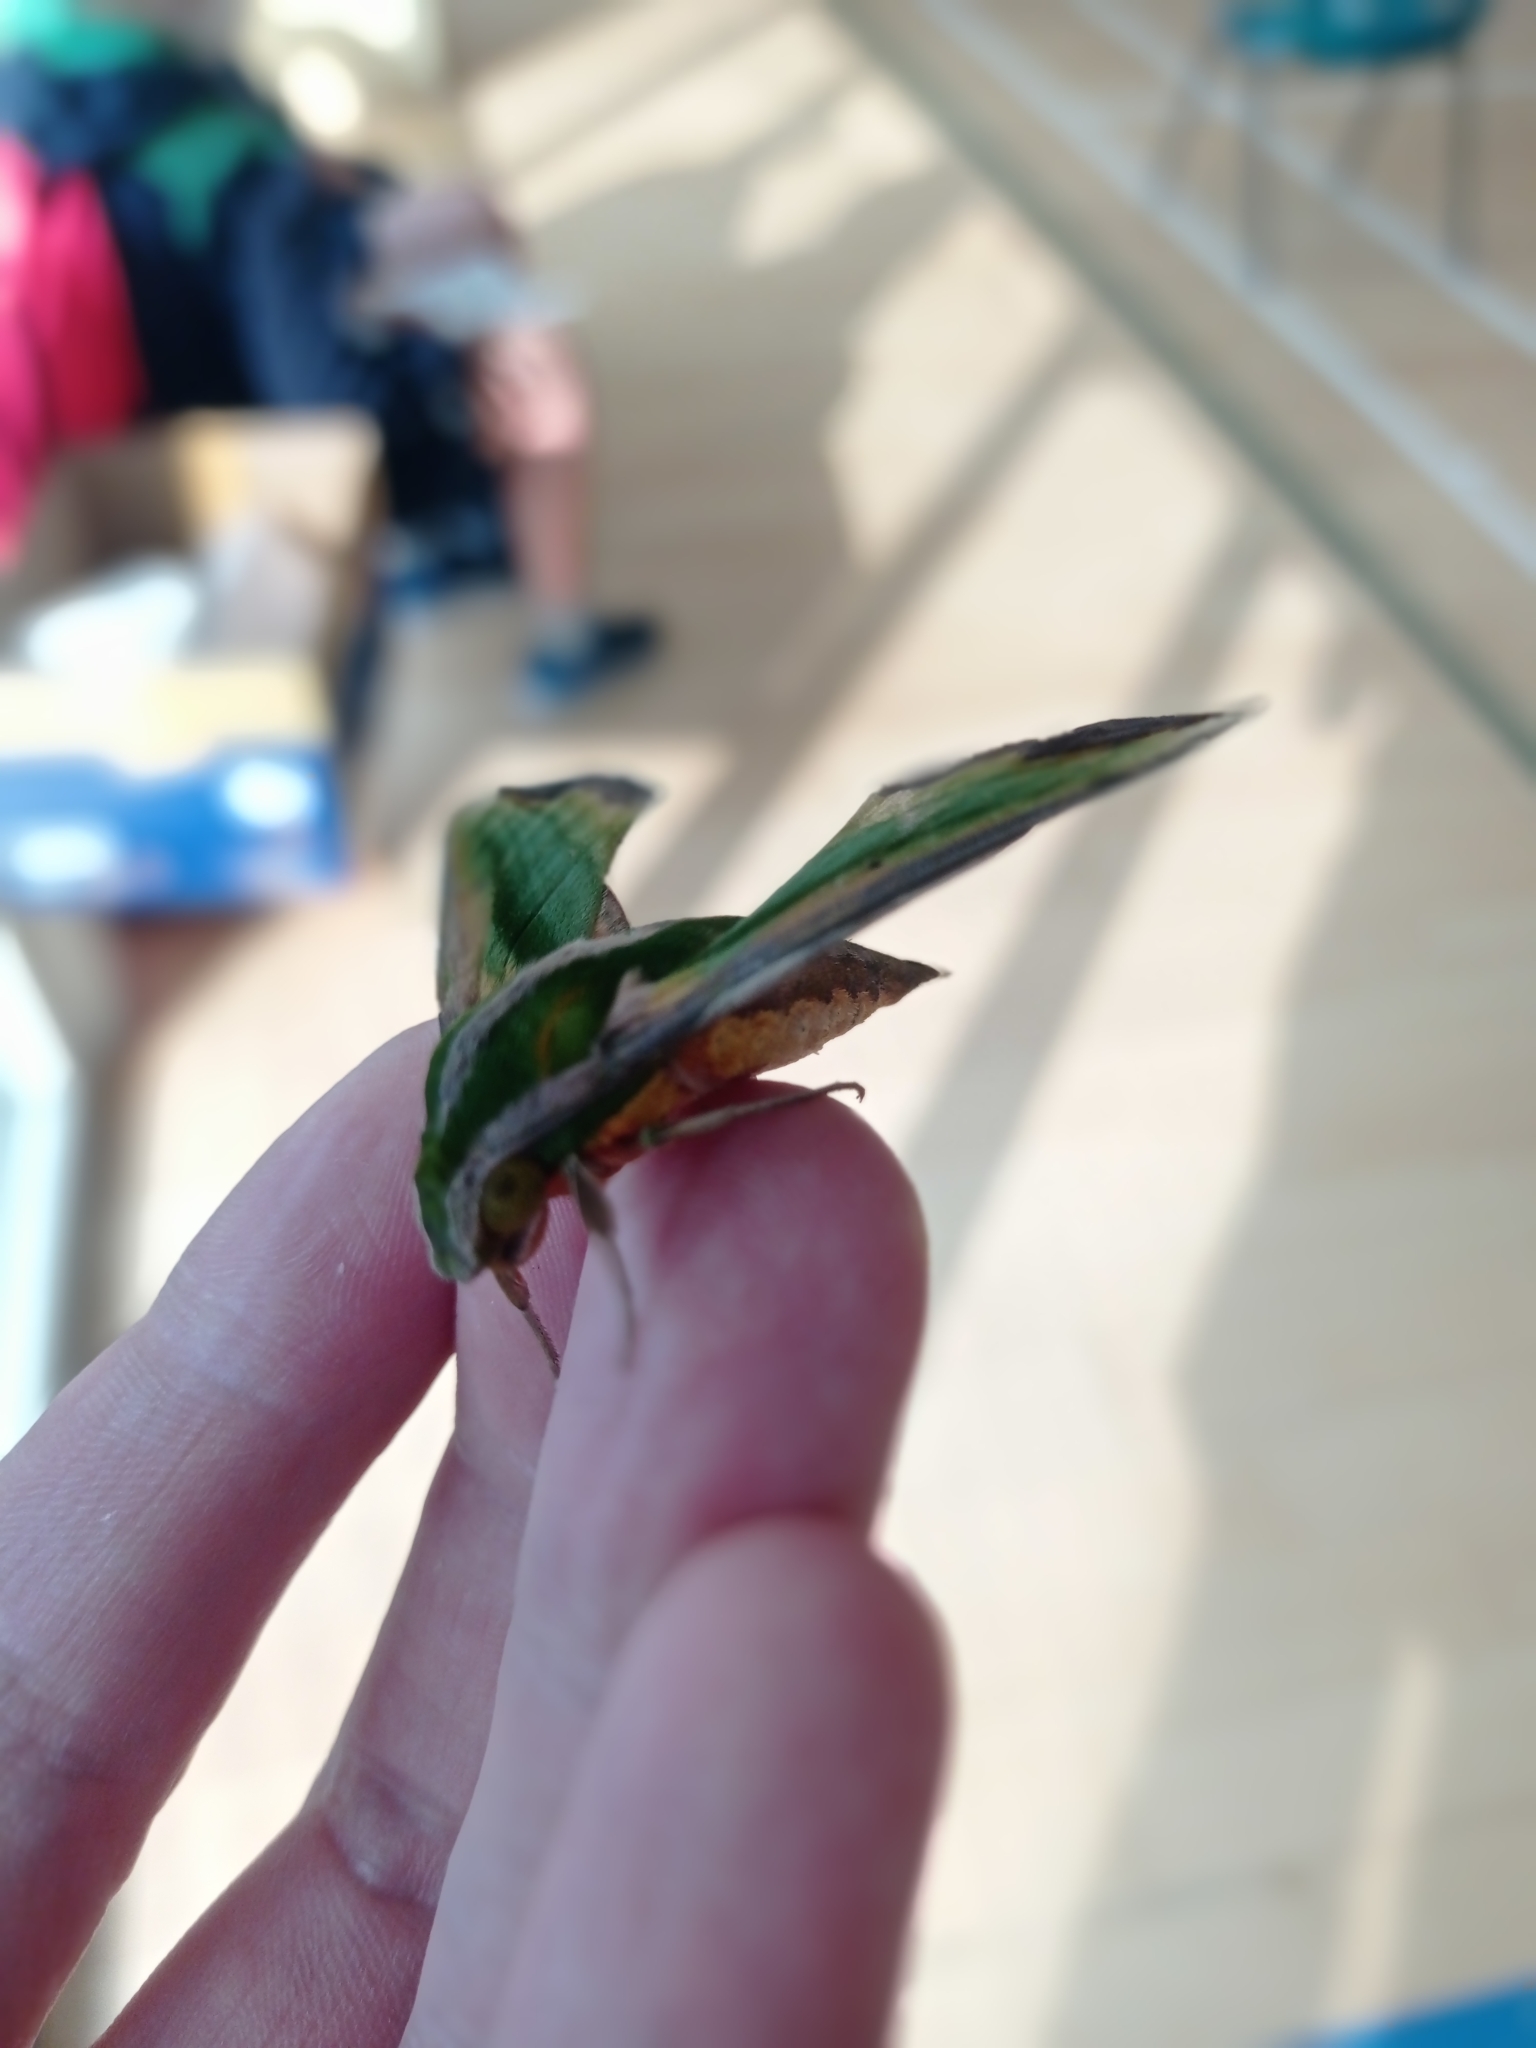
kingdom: Animalia
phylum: Arthropoda
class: Insecta
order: Lepidoptera
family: Sphingidae
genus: Pergesa
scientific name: Pergesa acteus
